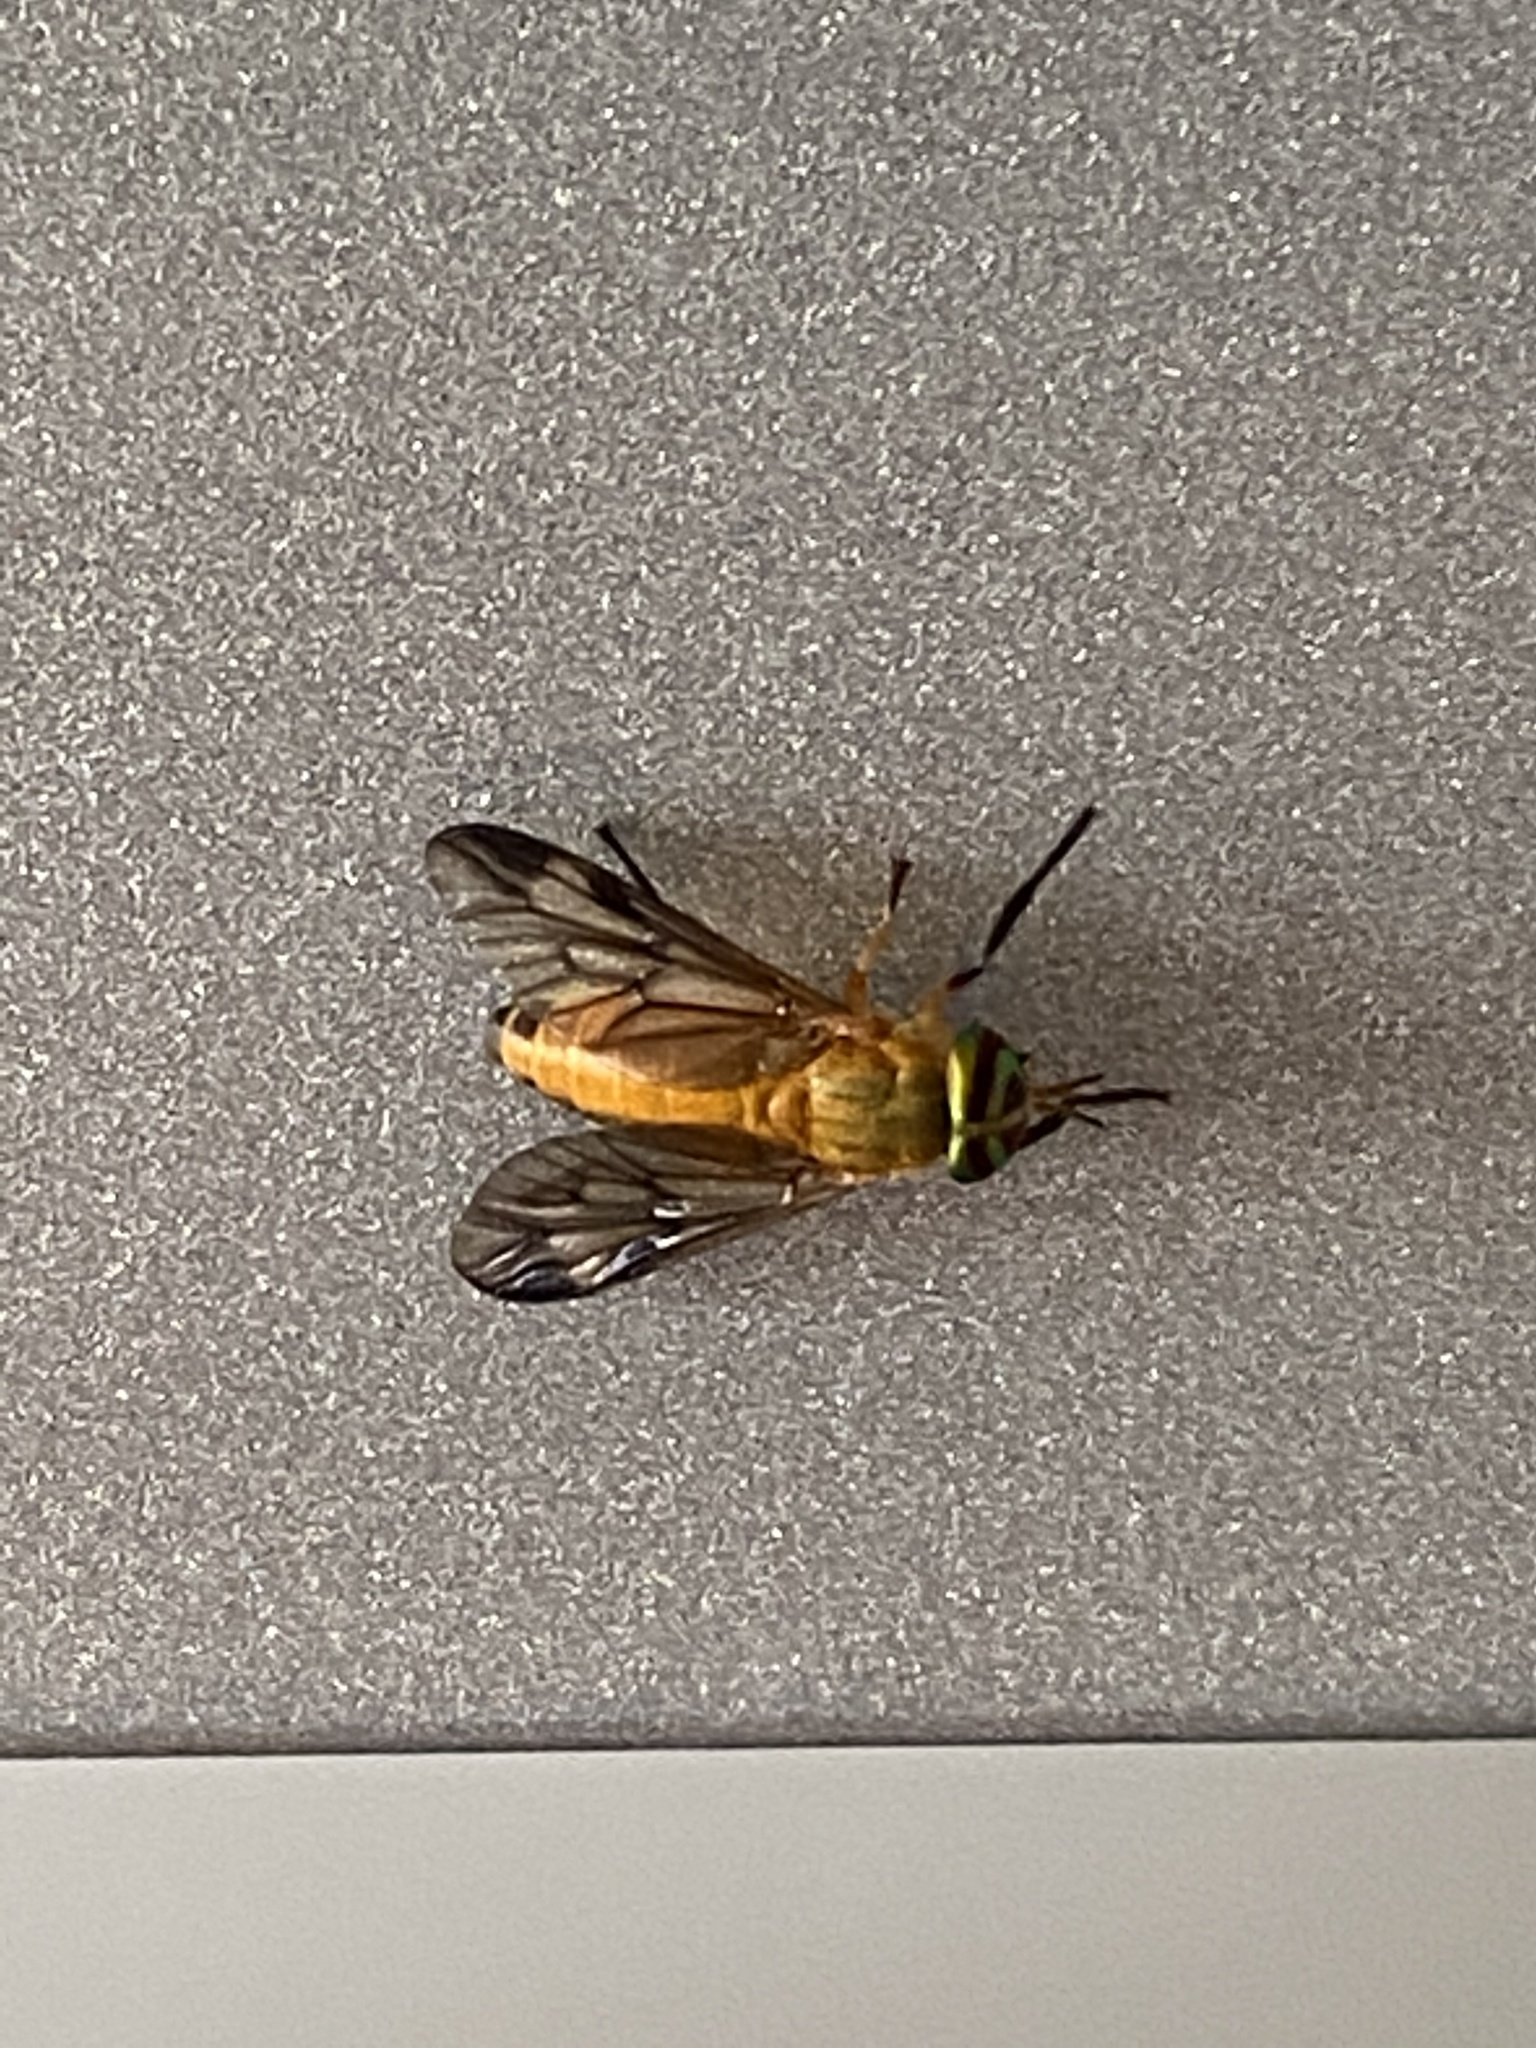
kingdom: Animalia
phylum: Arthropoda
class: Insecta
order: Diptera
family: Tabanidae
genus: Diachlorus
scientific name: Diachlorus ferrugatus
